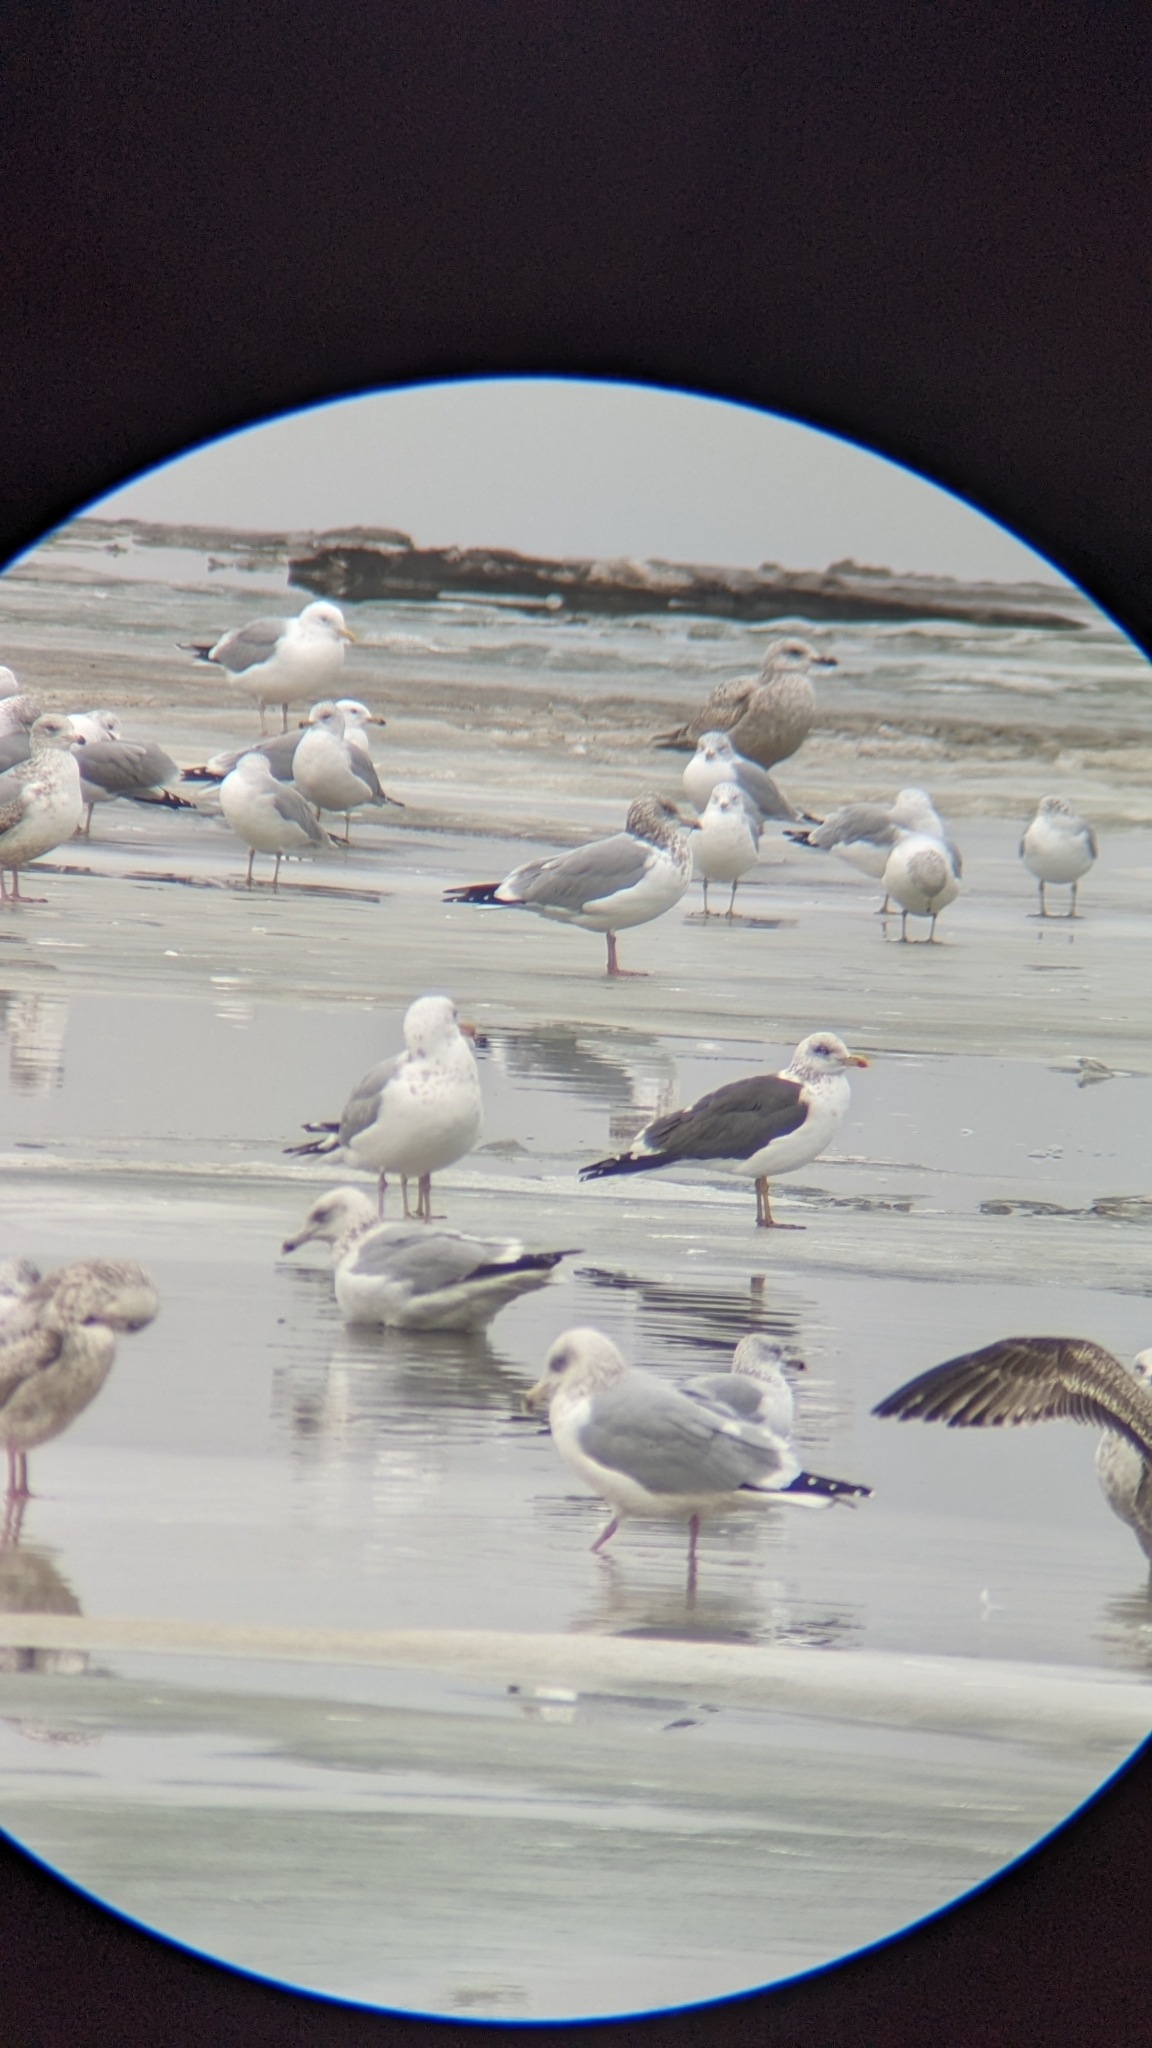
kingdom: Animalia
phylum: Chordata
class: Aves
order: Charadriiformes
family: Laridae
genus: Larus
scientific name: Larus fuscus
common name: Lesser black-backed gull
